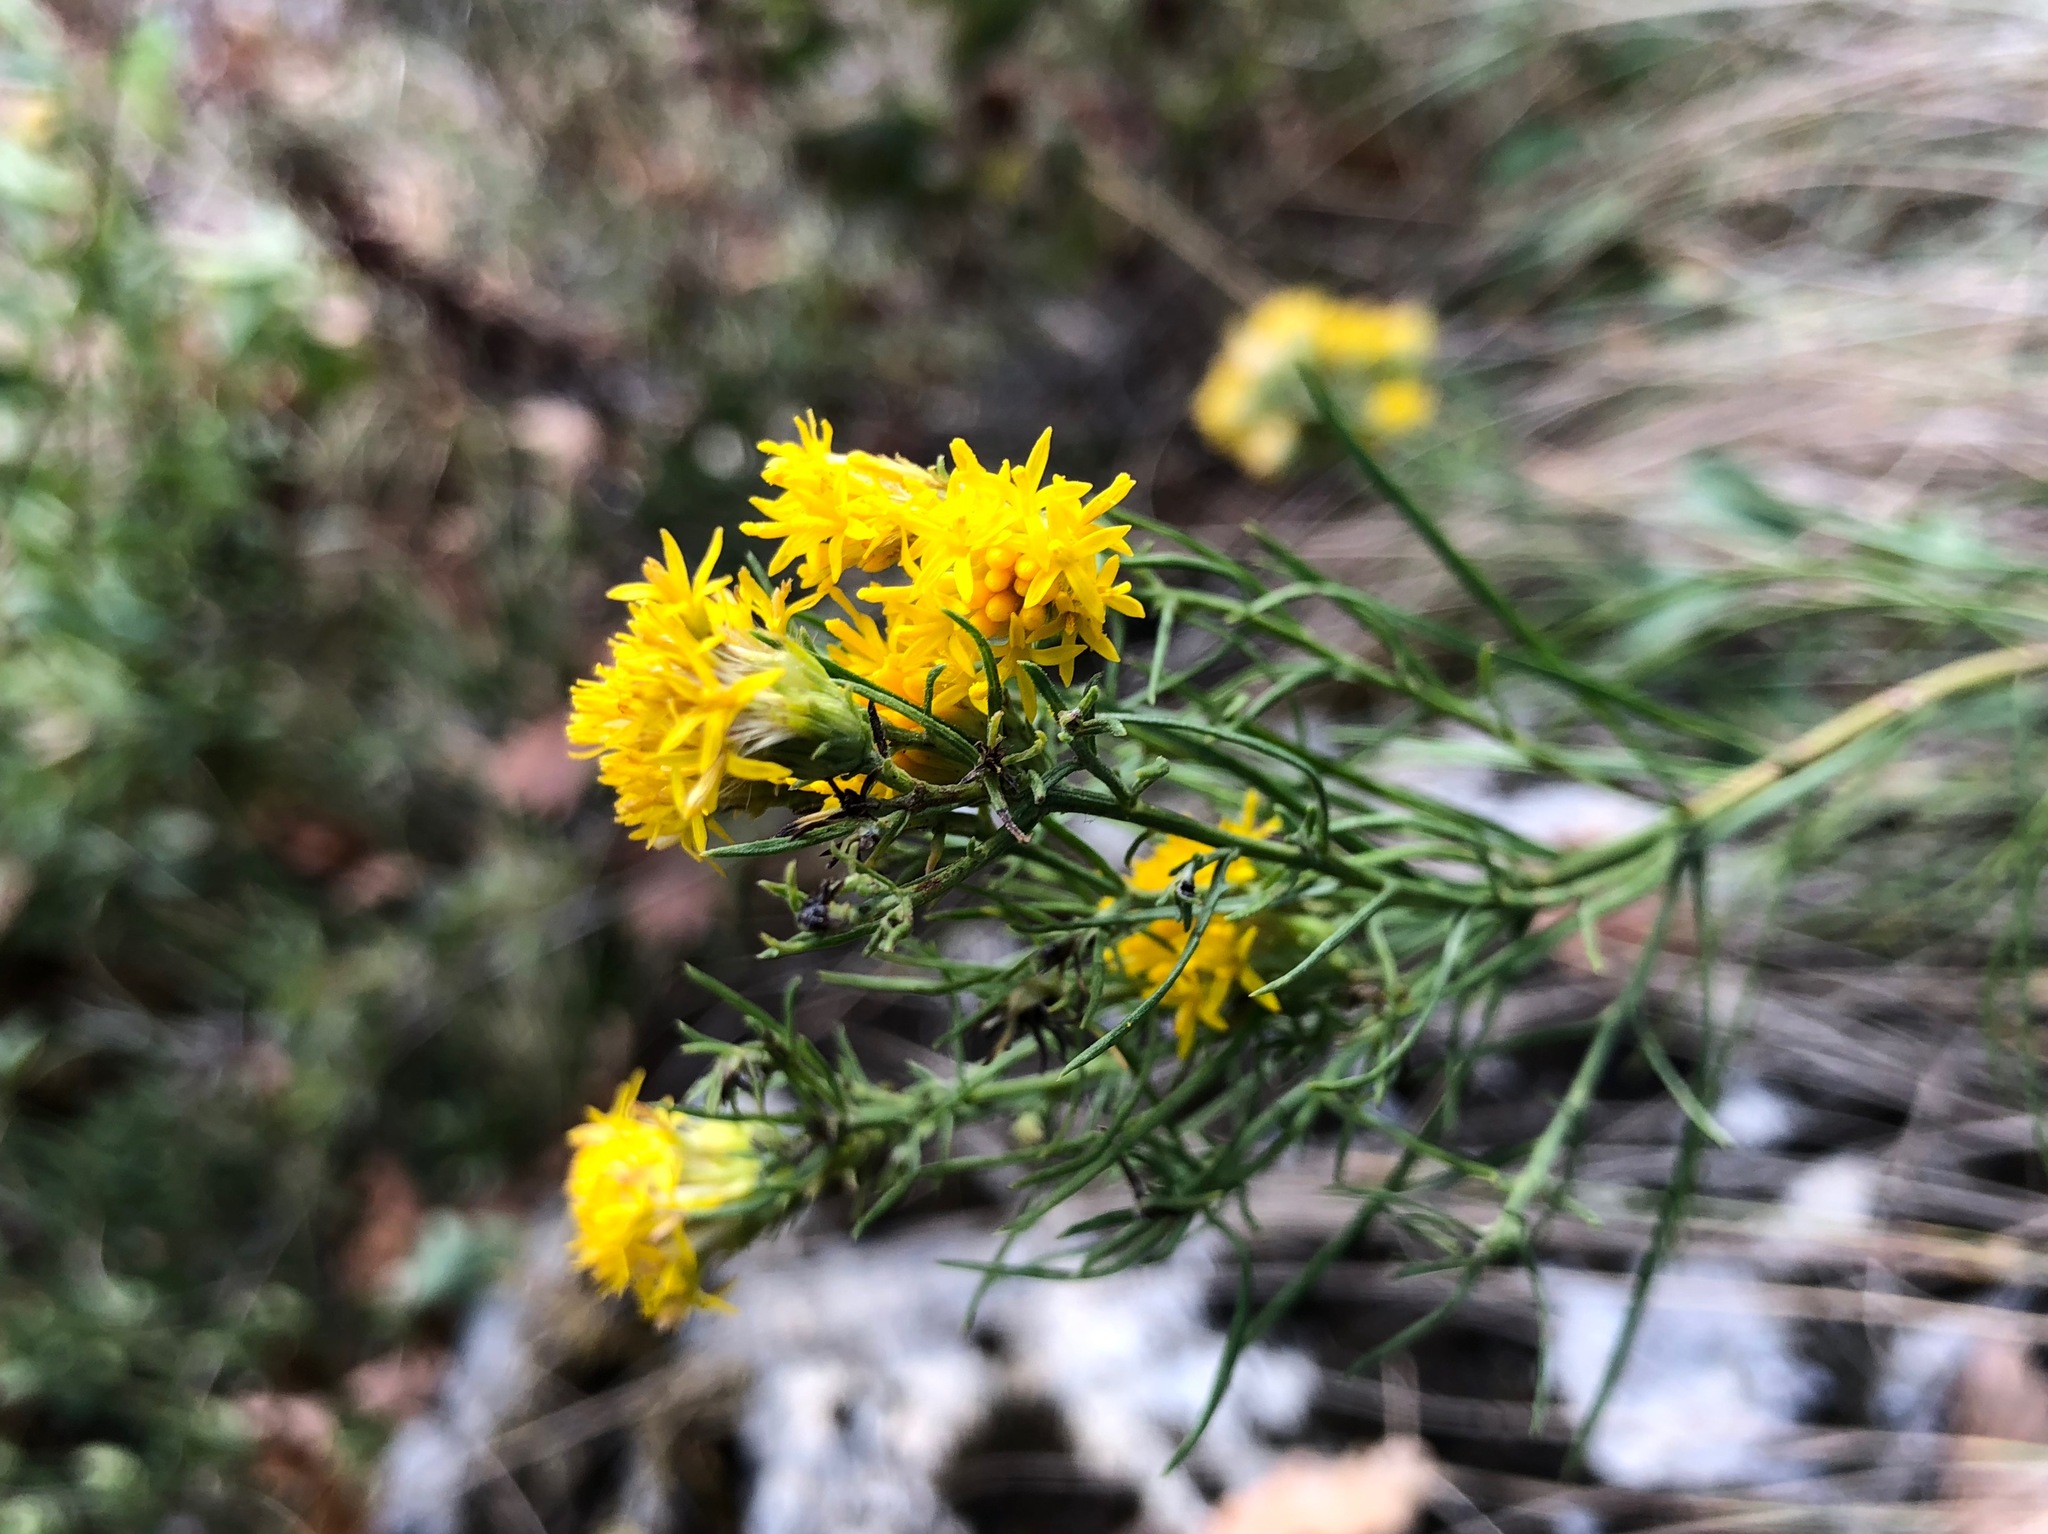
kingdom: Plantae
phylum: Tracheophyta
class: Magnoliopsida
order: Asterales
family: Asteraceae
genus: Galatella
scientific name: Galatella linosyris
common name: Goldilocks aster
